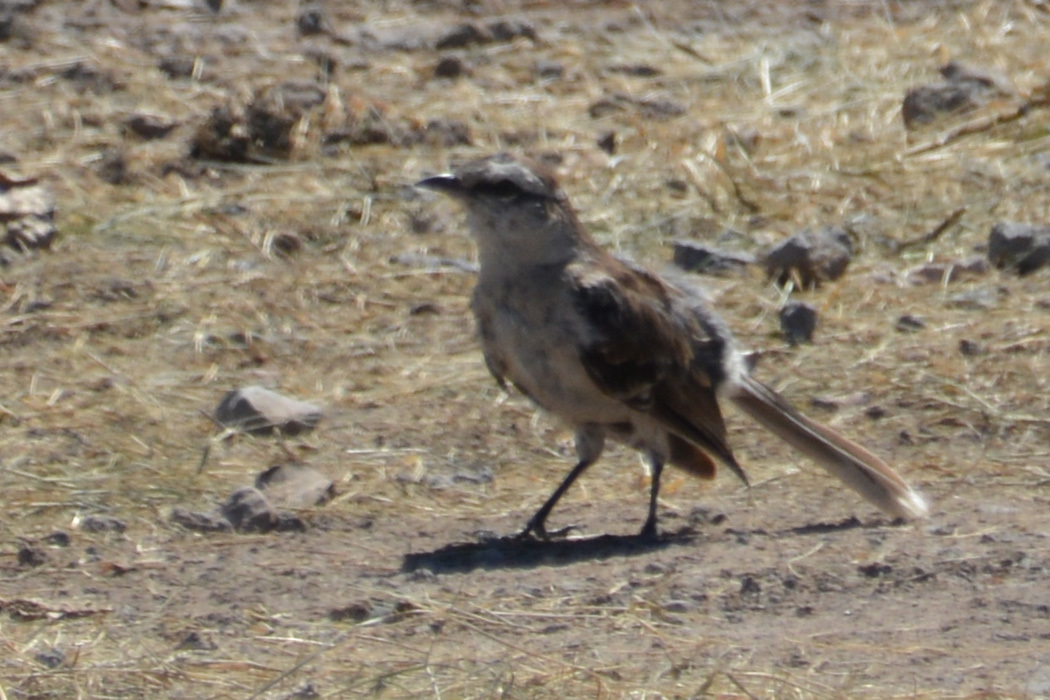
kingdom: Animalia
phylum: Chordata
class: Aves
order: Passeriformes
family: Mimidae
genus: Mimus
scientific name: Mimus saturninus
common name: Chalk-browed mockingbird
